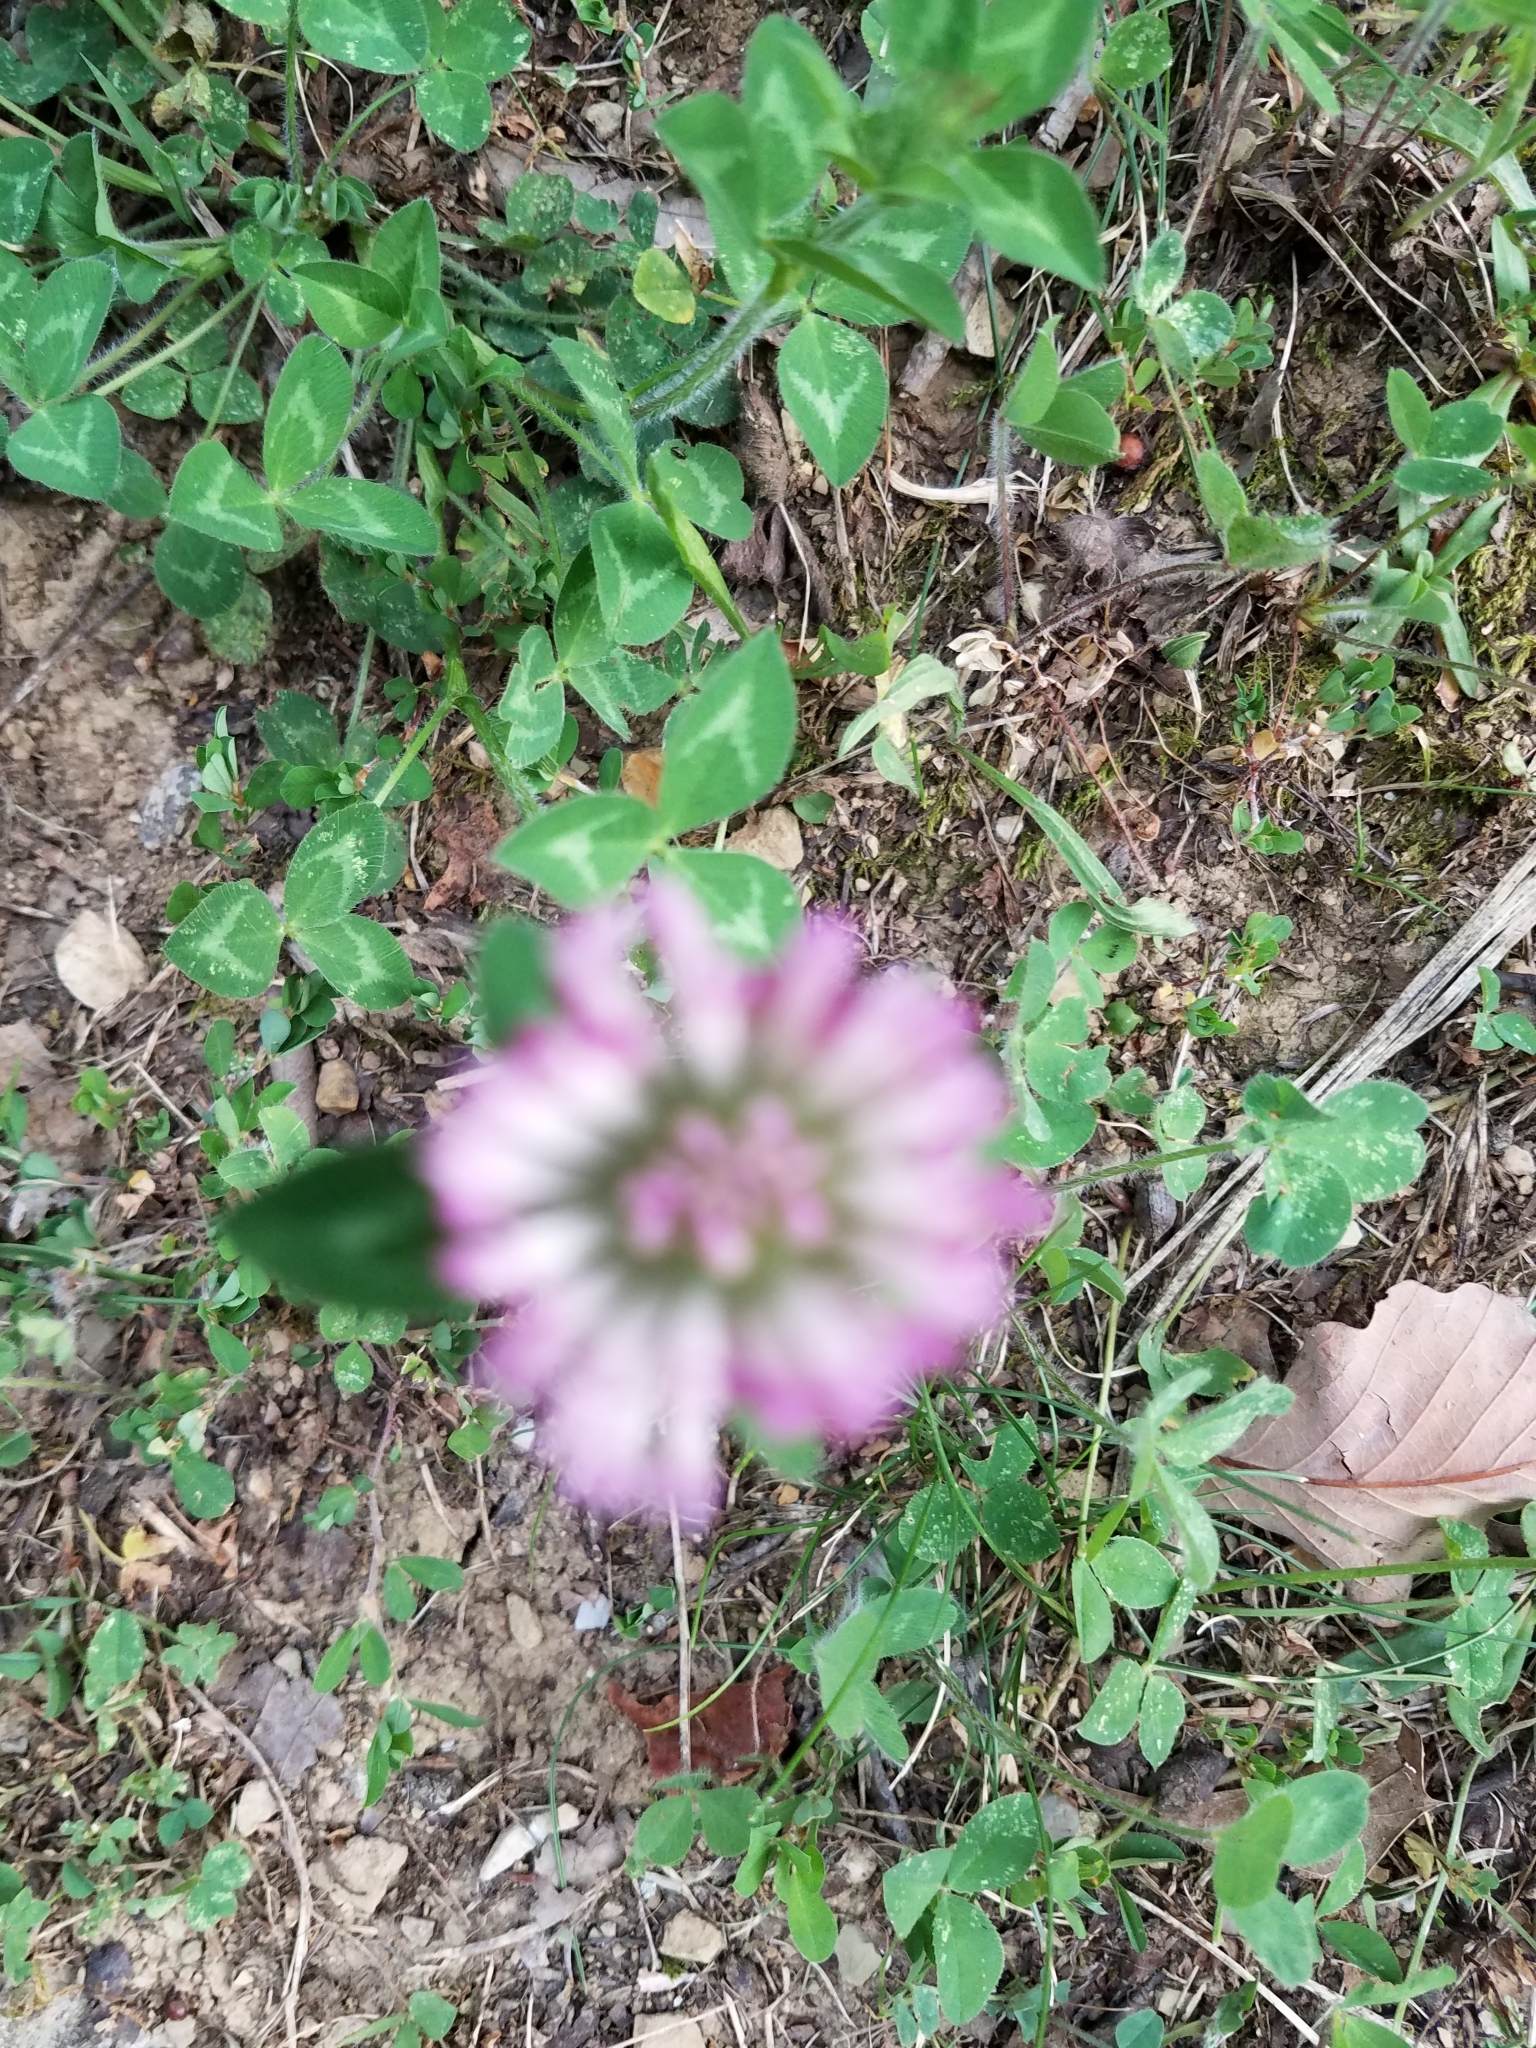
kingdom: Plantae
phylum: Tracheophyta
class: Magnoliopsida
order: Fabales
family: Fabaceae
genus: Trifolium
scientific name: Trifolium pratense
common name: Red clover
